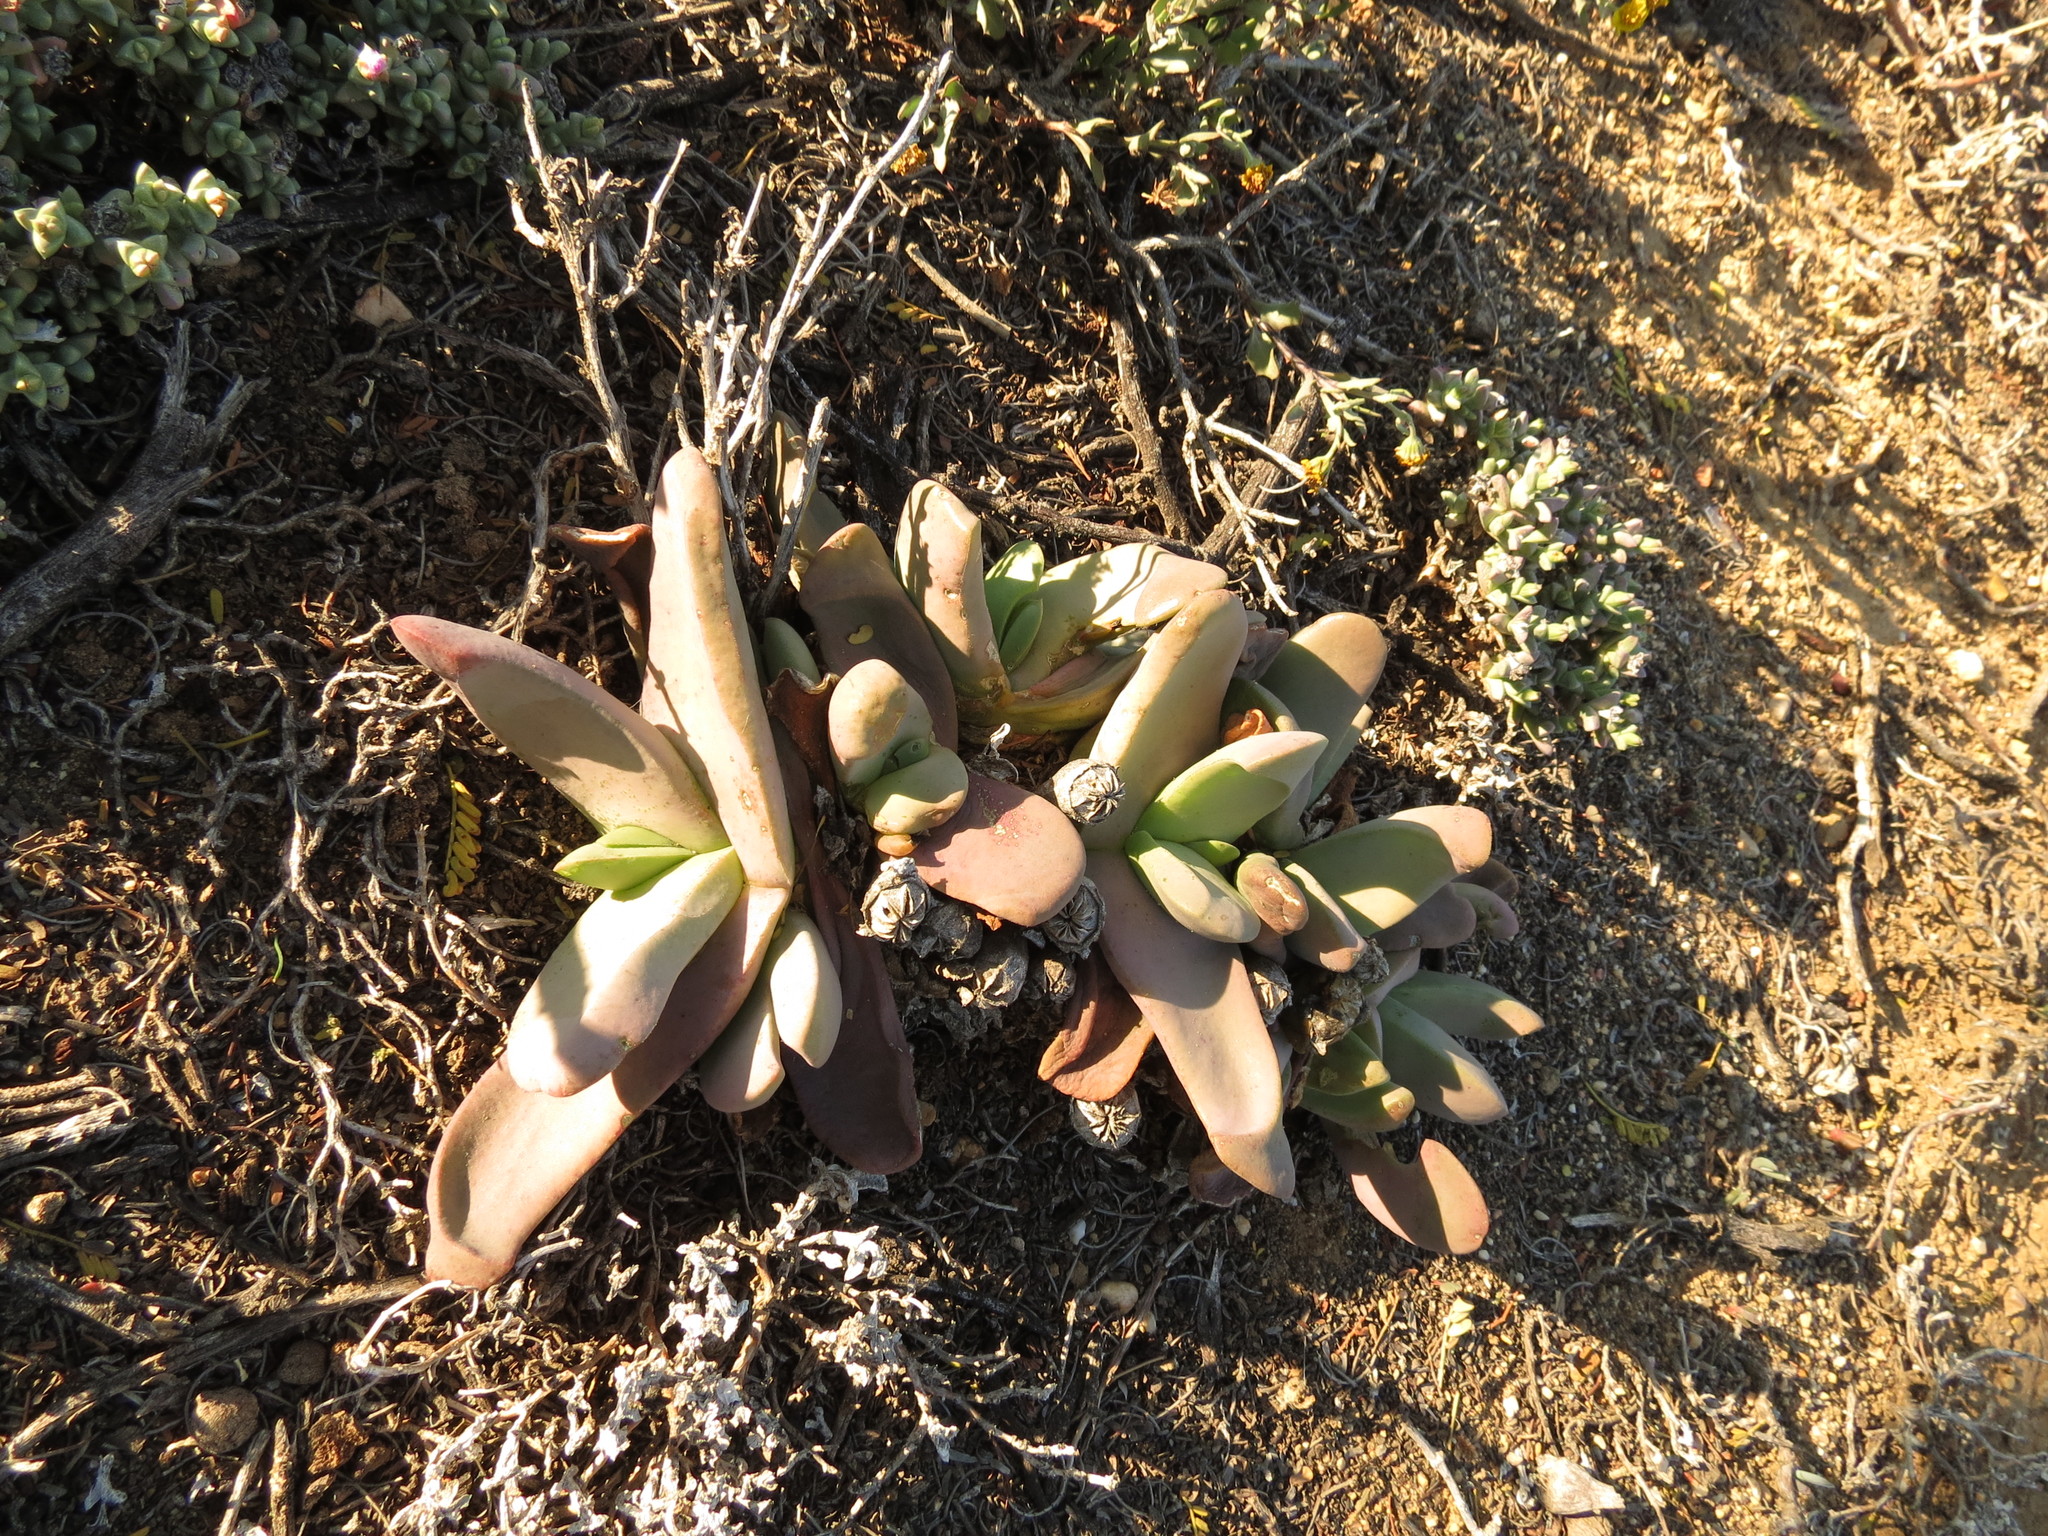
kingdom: Plantae
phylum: Tracheophyta
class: Magnoliopsida
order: Caryophyllales
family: Aizoaceae
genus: Glottiphyllum
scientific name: Glottiphyllum neilii
